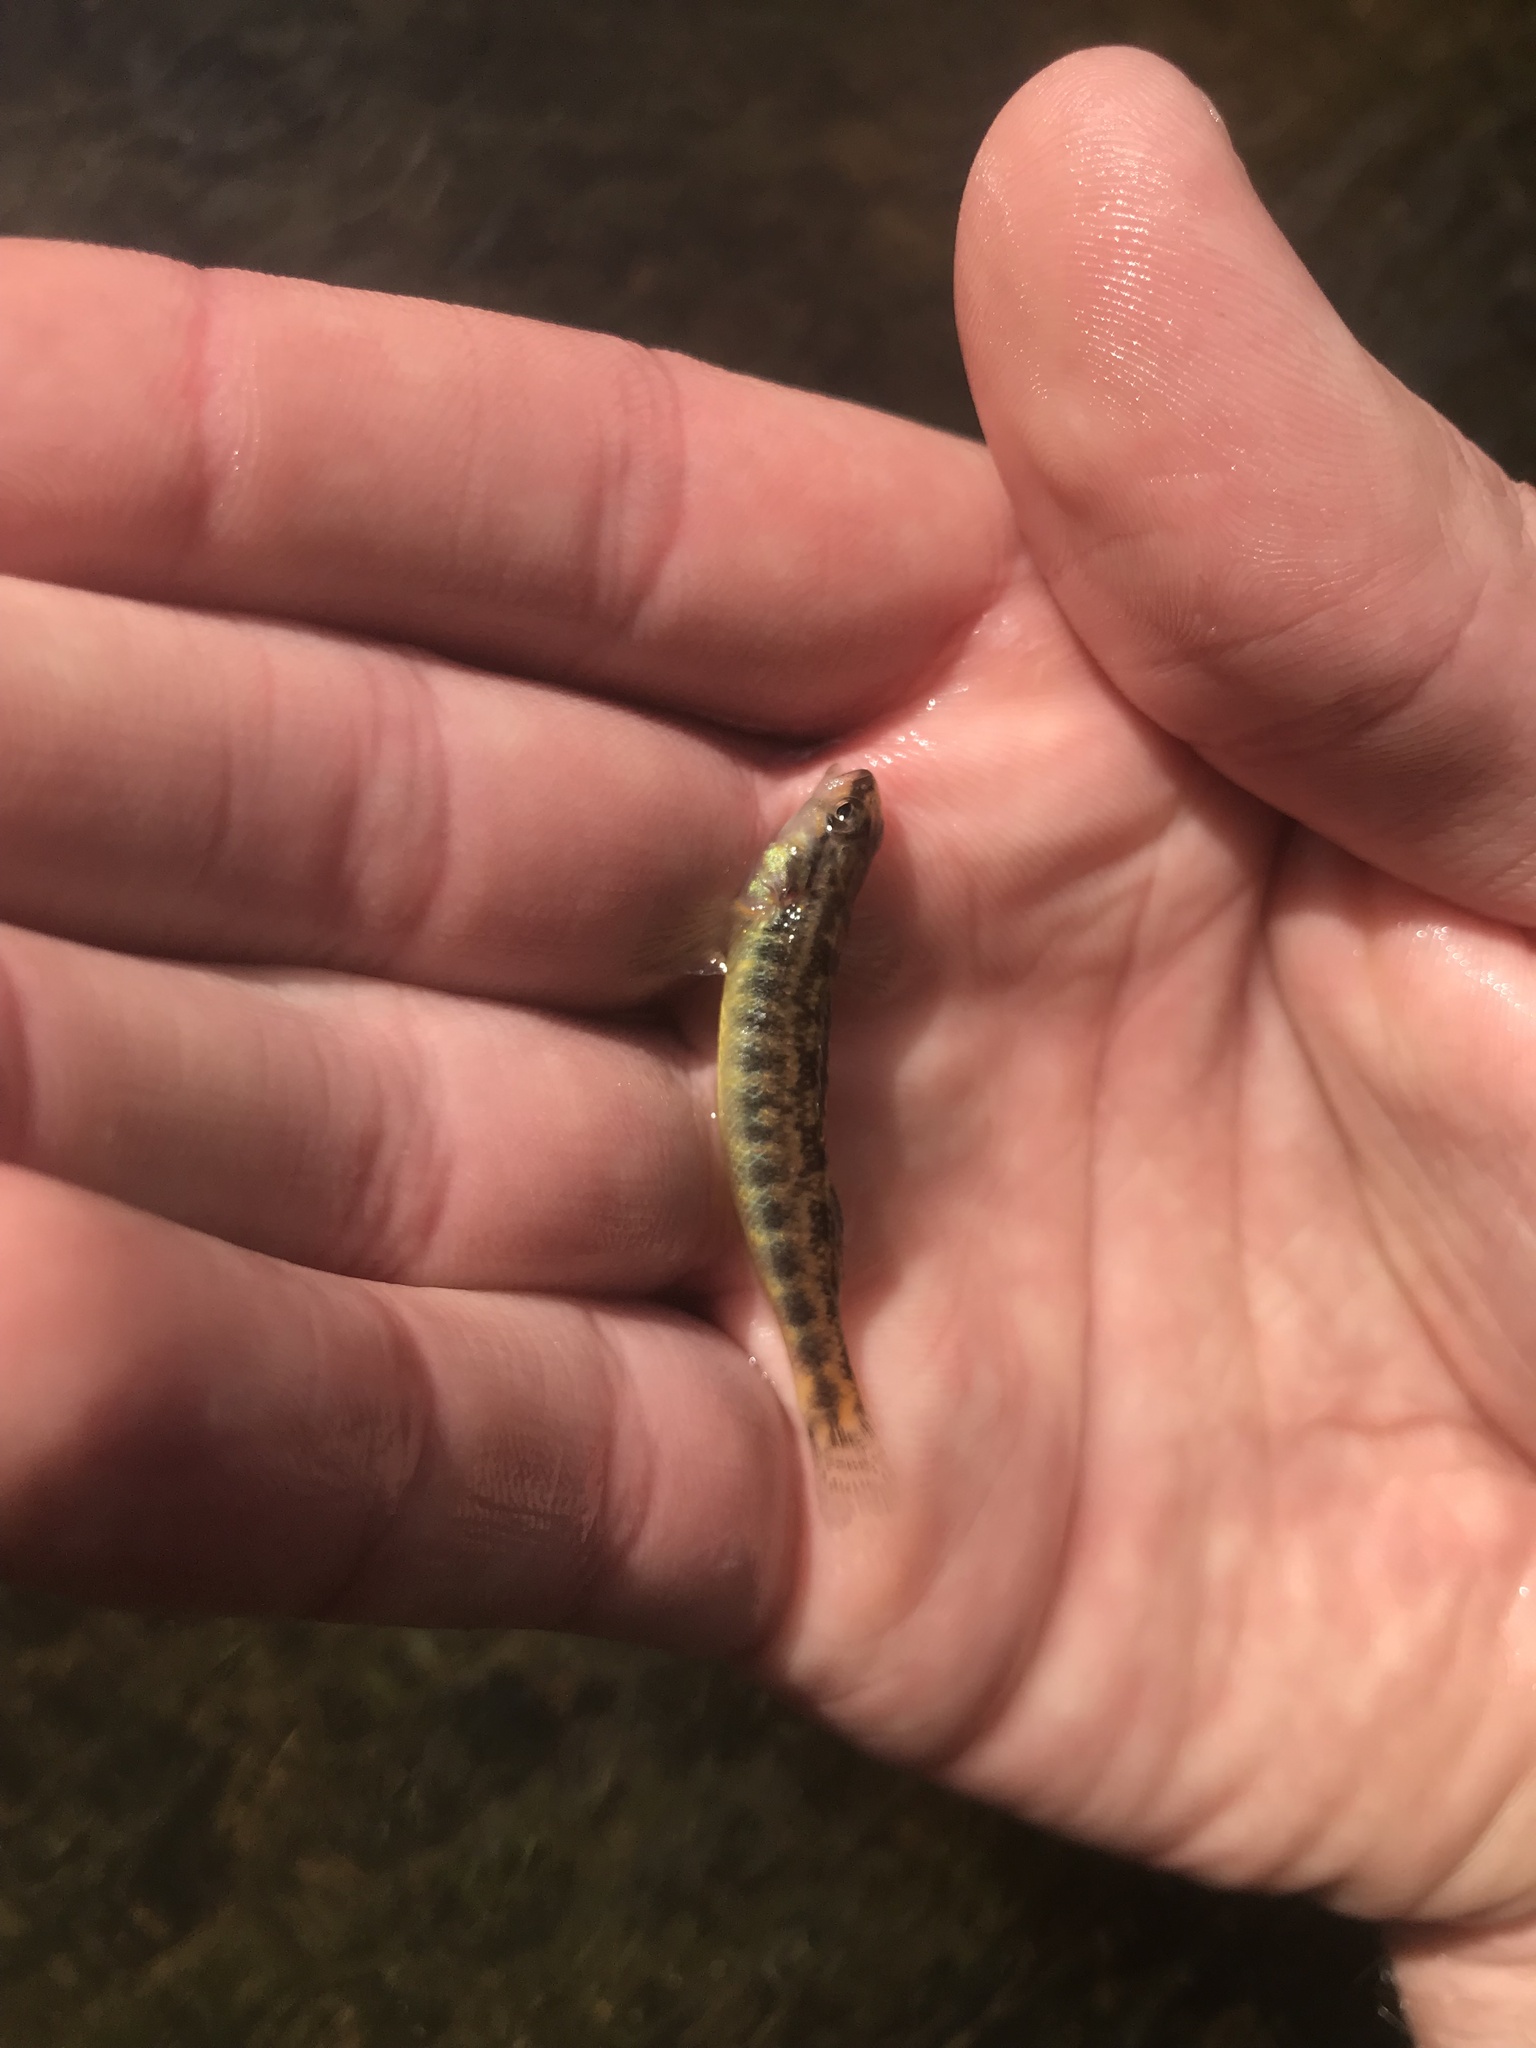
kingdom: Animalia
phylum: Chordata
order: Perciformes
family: Percidae
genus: Percina
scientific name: Percina roanoka
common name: Roanoke darter
